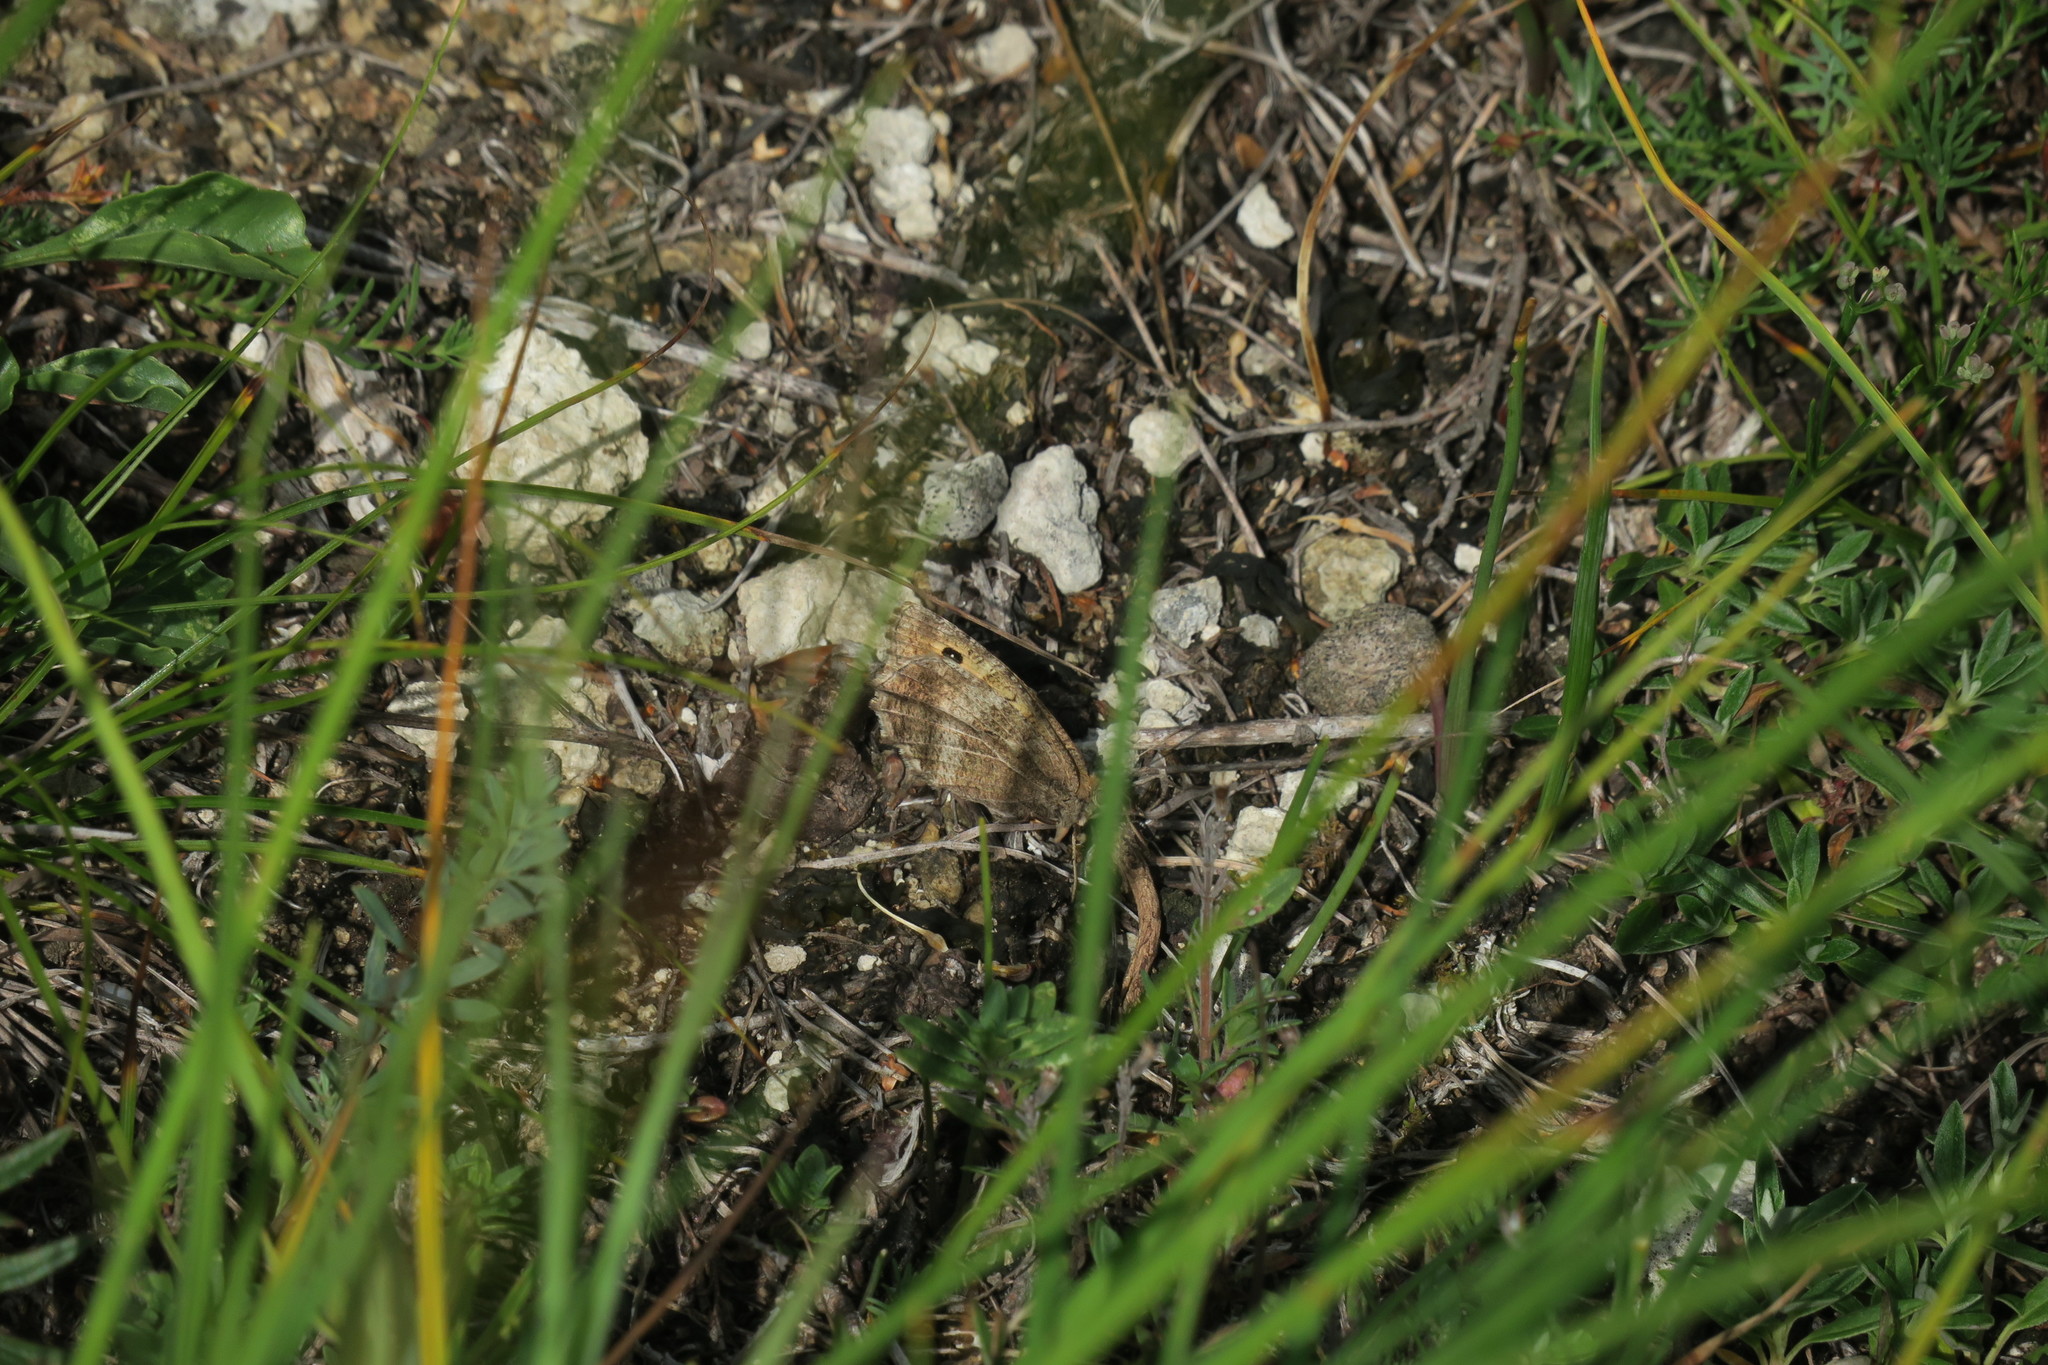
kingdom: Animalia
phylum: Arthropoda
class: Insecta
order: Lepidoptera
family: Nymphalidae
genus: Arethusana
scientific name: Arethusana arethusa
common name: False grayling
